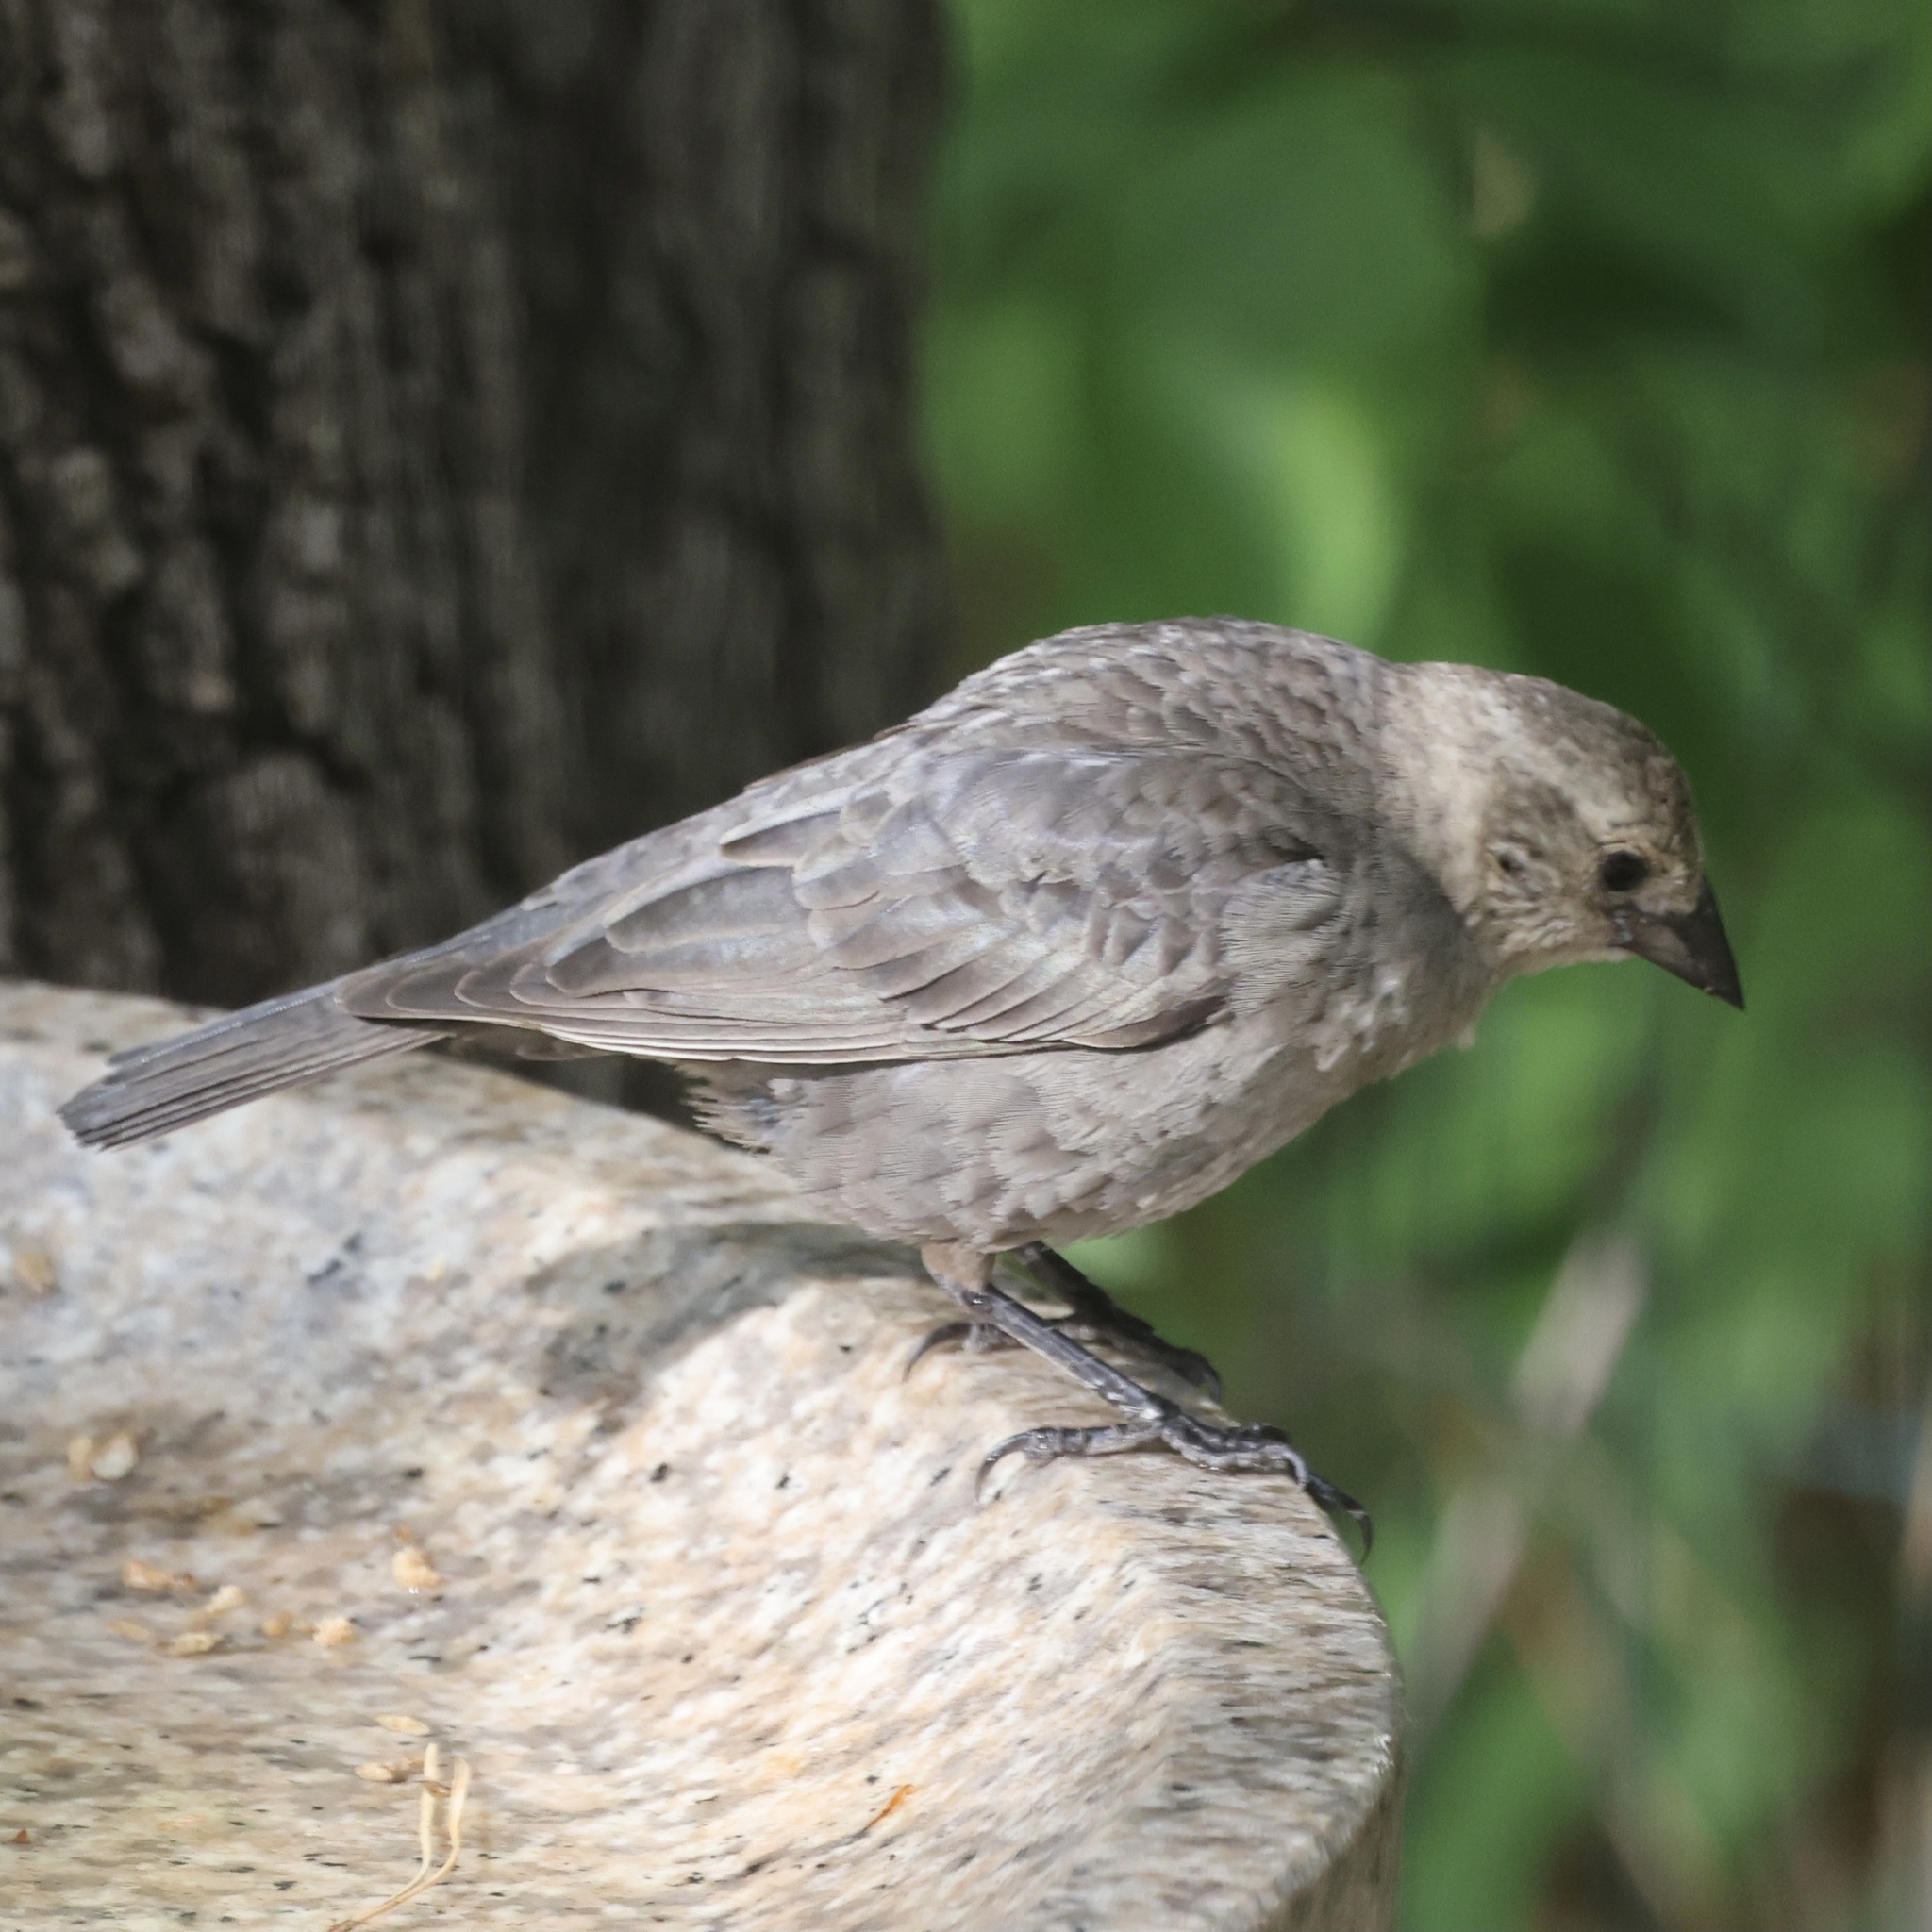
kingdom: Animalia
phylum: Chordata
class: Aves
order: Passeriformes
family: Icteridae
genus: Molothrus
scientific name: Molothrus ater
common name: Brown-headed cowbird
